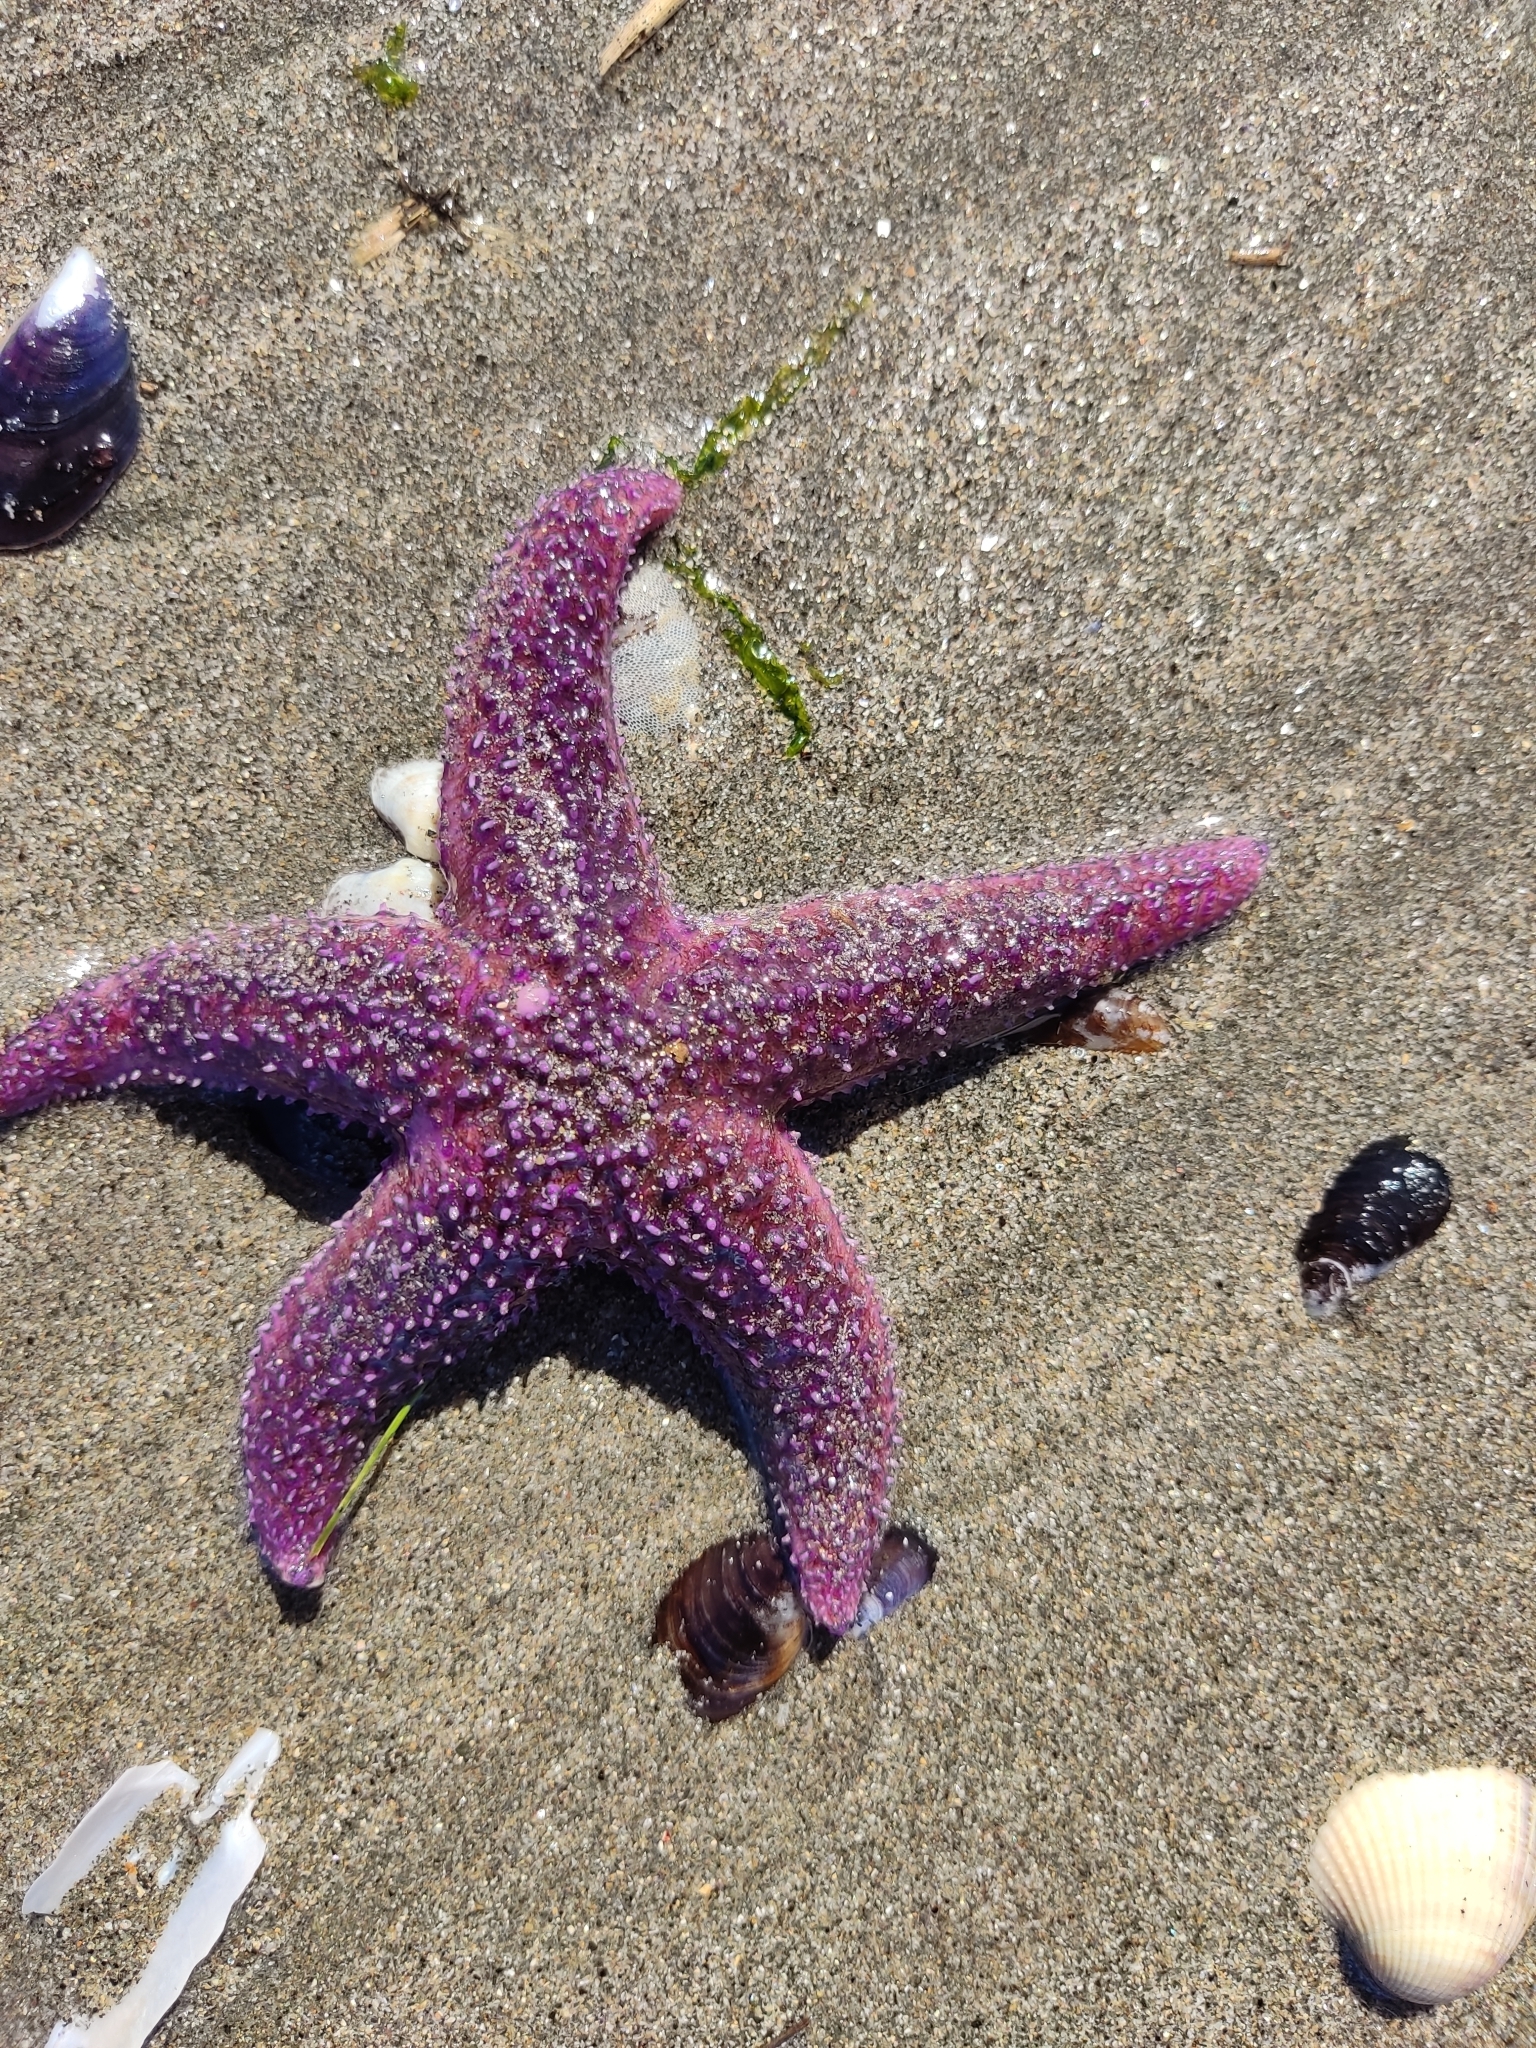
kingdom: Animalia
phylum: Echinodermata
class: Asteroidea
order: Forcipulatida
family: Asteriidae
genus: Asterias
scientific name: Asterias rubens
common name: Common starfish
